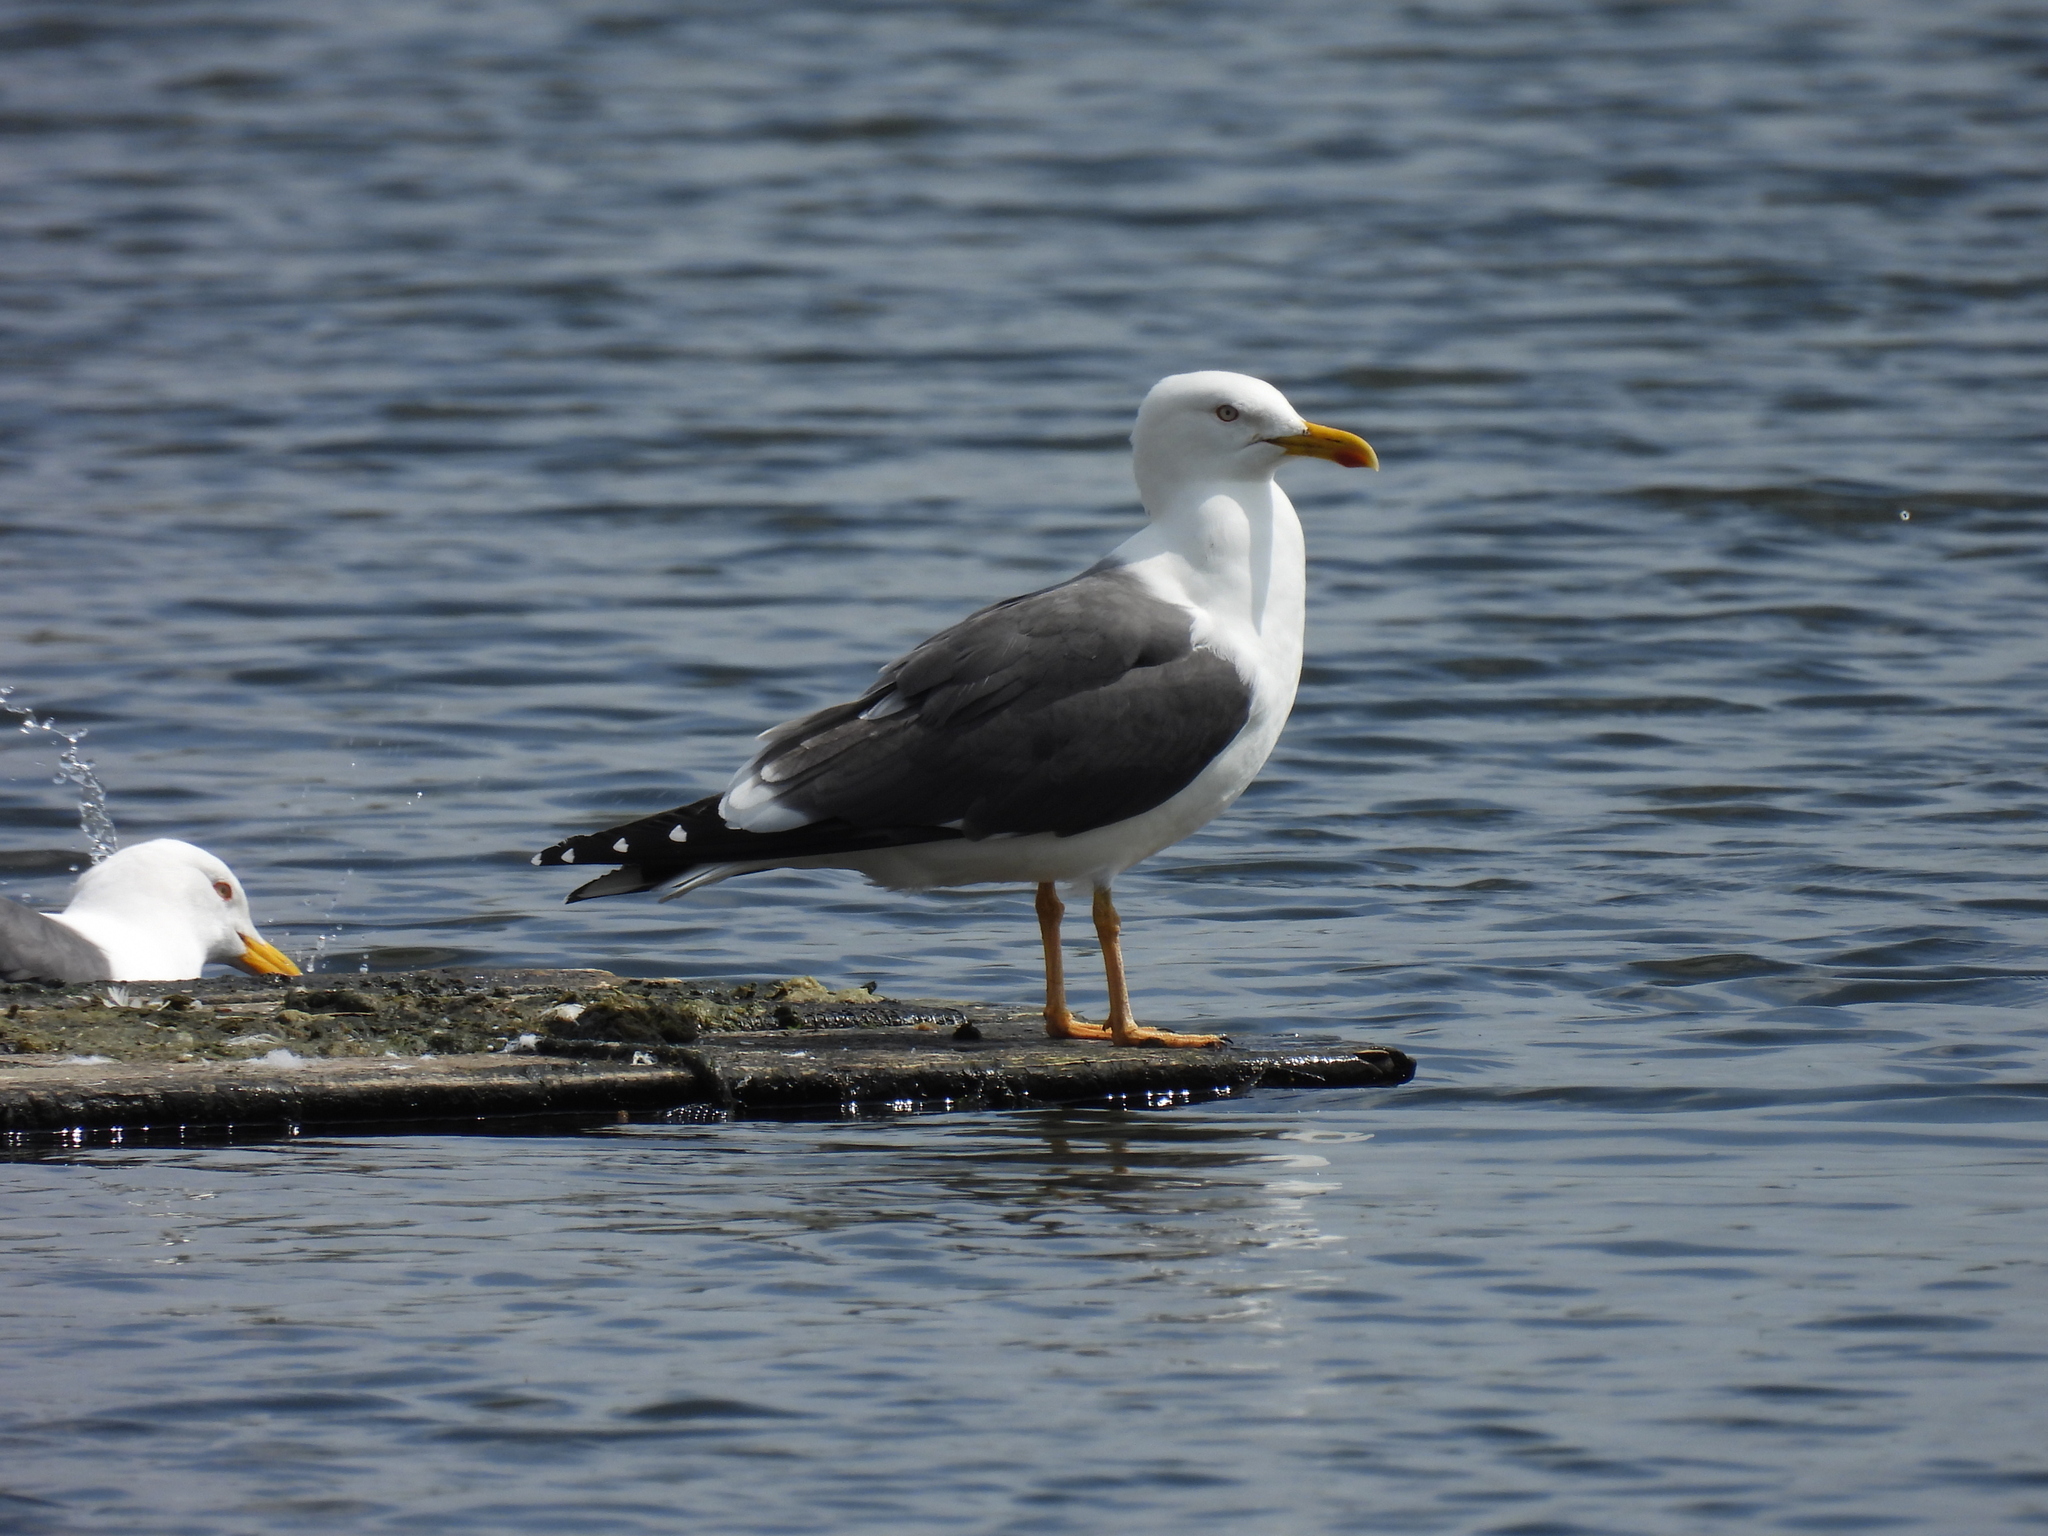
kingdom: Animalia
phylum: Chordata
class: Aves
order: Charadriiformes
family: Laridae
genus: Larus
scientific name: Larus fuscus
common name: Lesser black-backed gull
